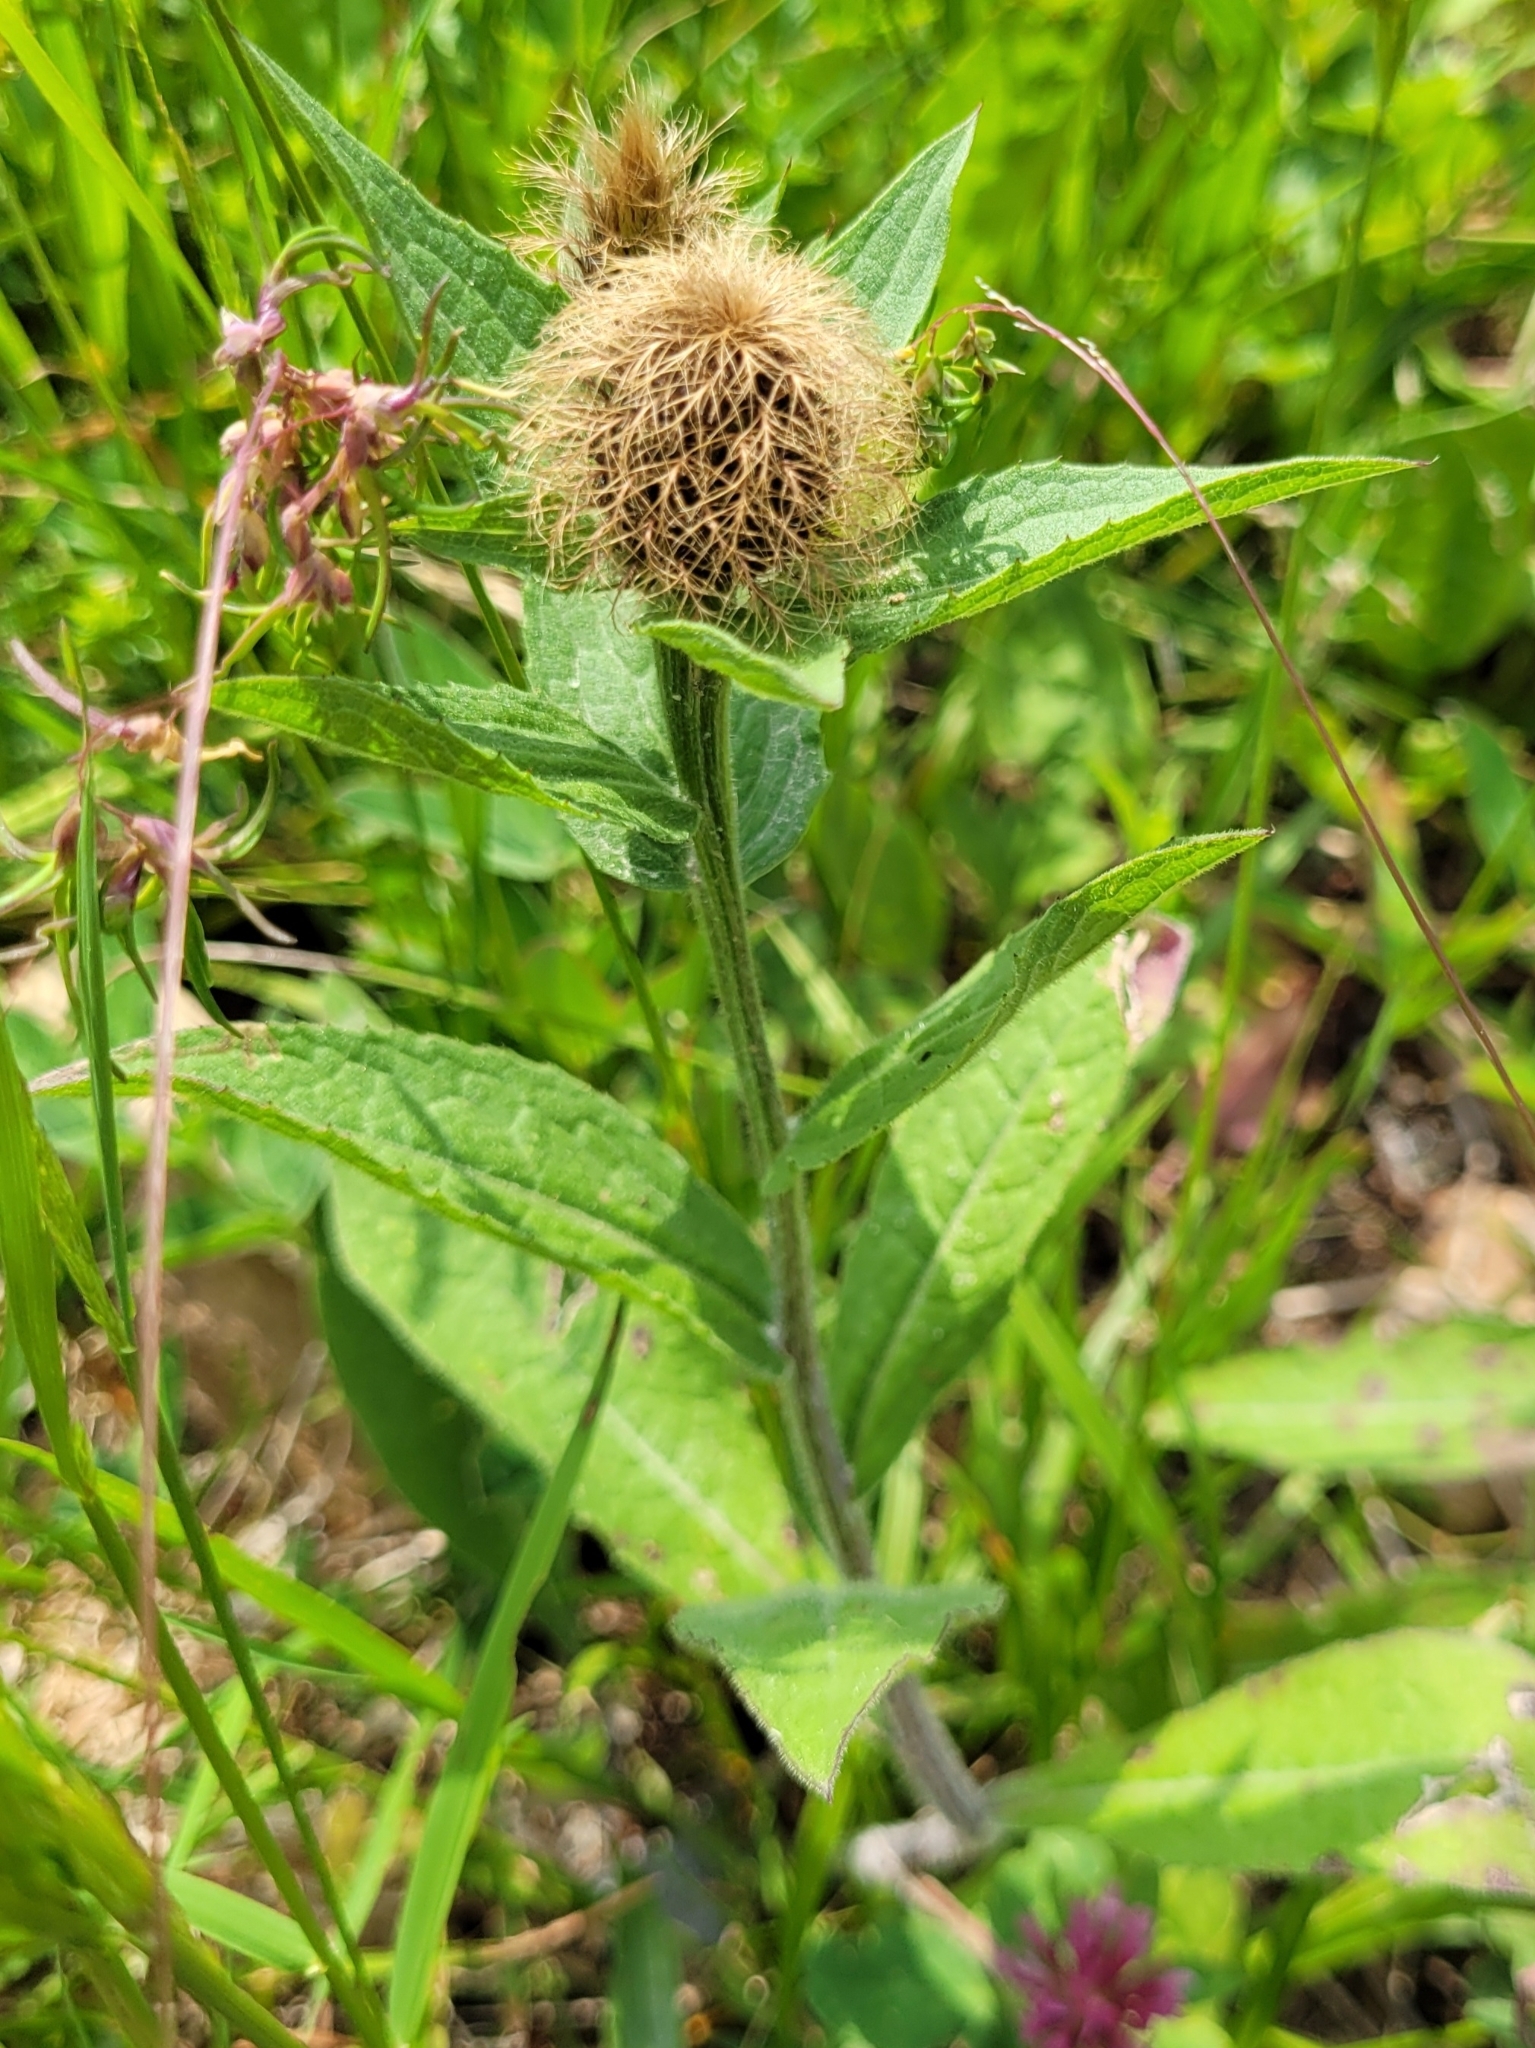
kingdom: Plantae
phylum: Tracheophyta
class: Magnoliopsida
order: Asterales
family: Asteraceae
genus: Centaurea
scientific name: Centaurea phrygia
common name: Wig knapweed
